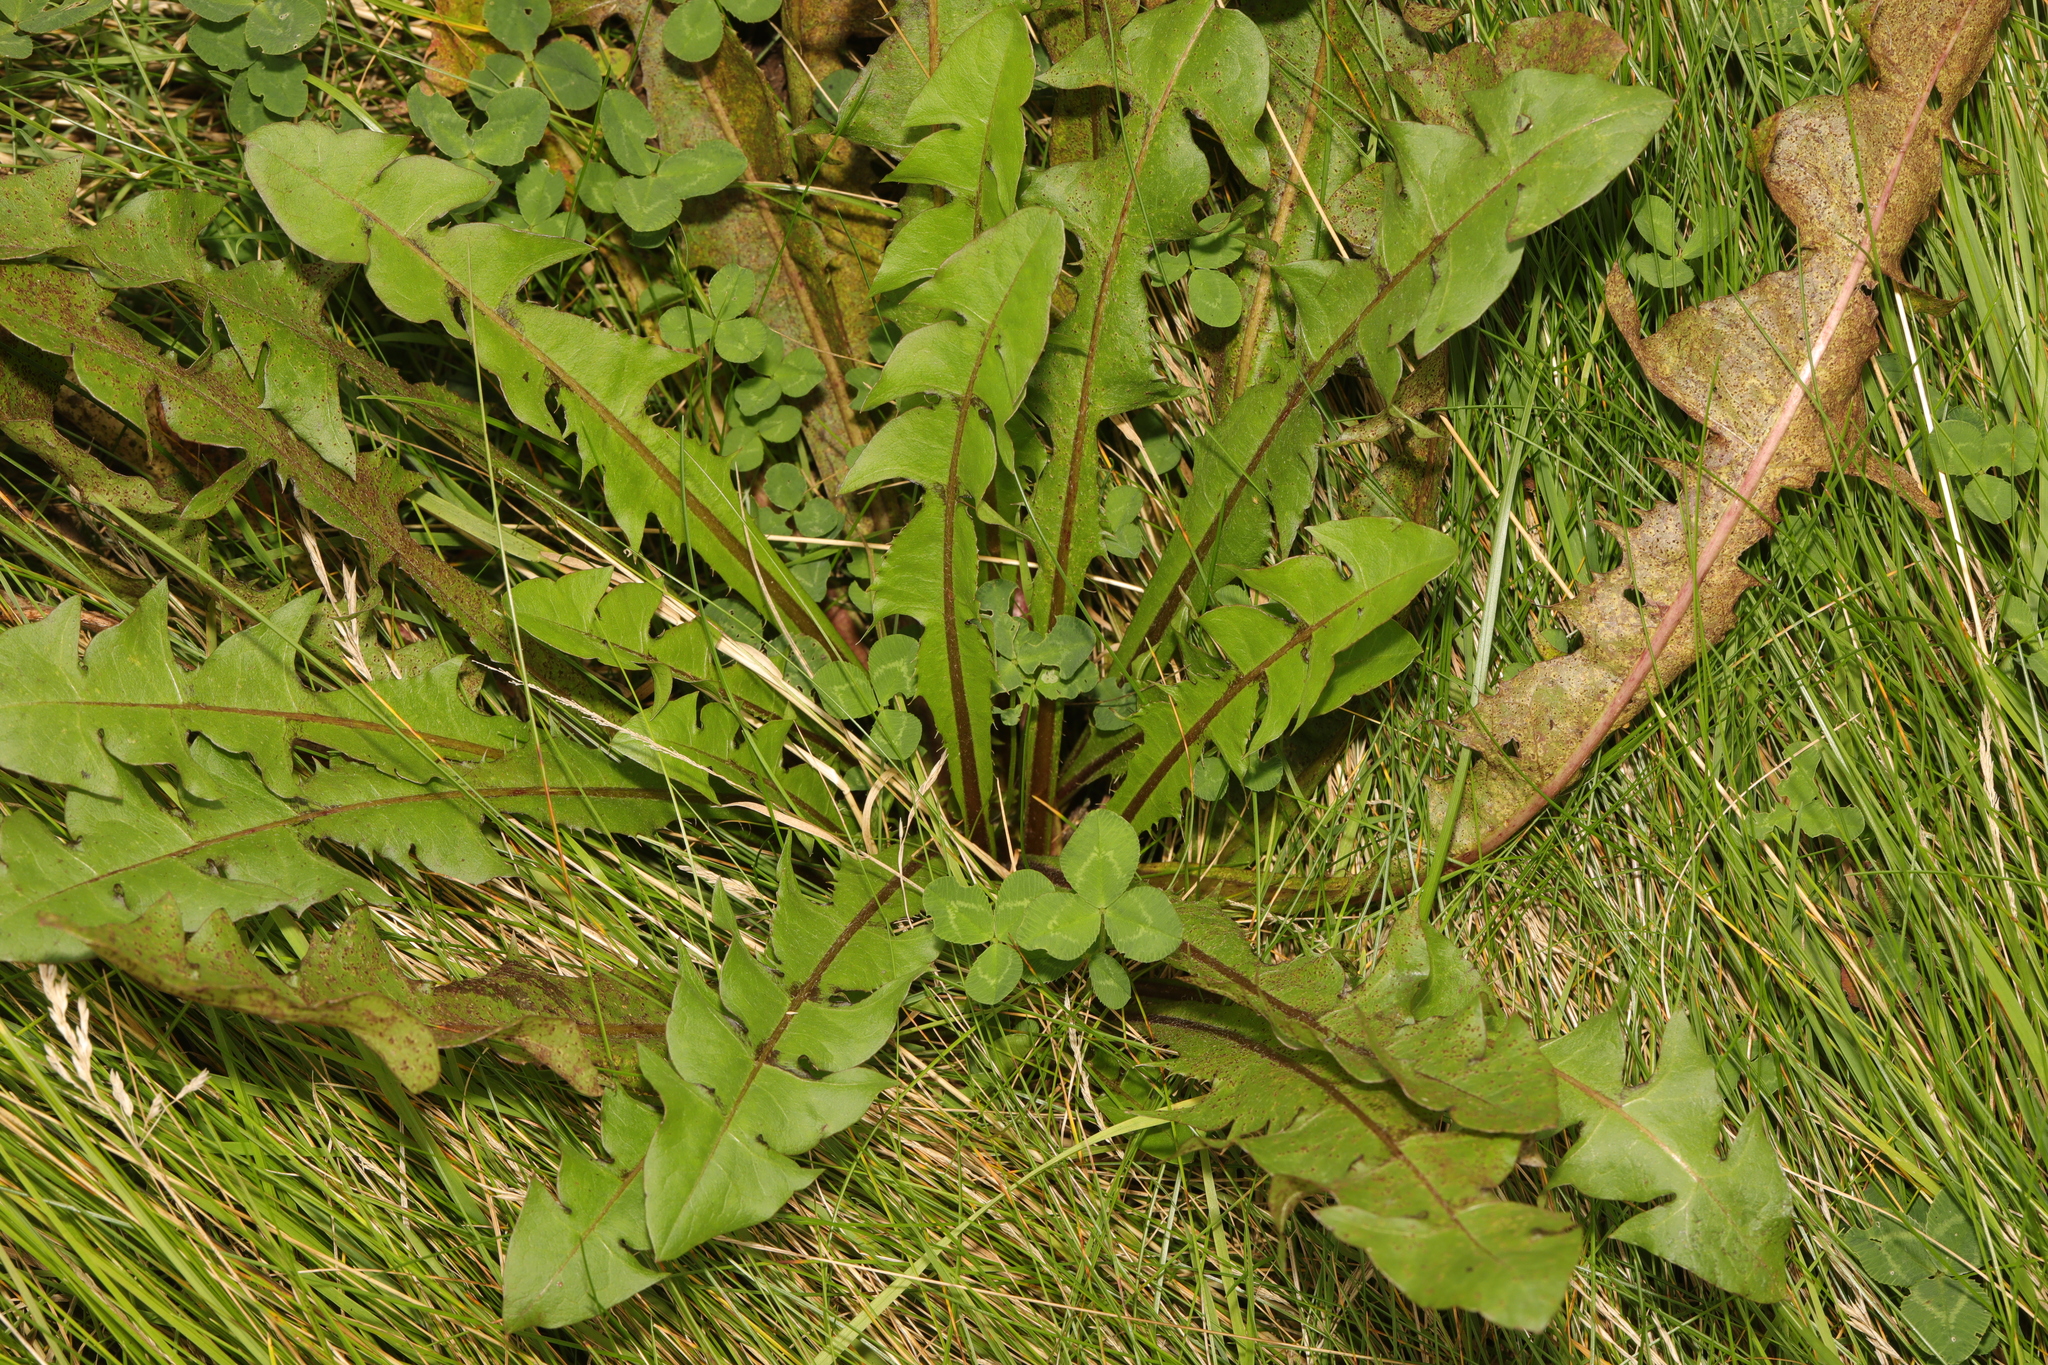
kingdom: Plantae
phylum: Tracheophyta
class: Magnoliopsida
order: Asterales
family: Asteraceae
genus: Taraxacum
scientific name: Taraxacum officinale
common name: Common dandelion
